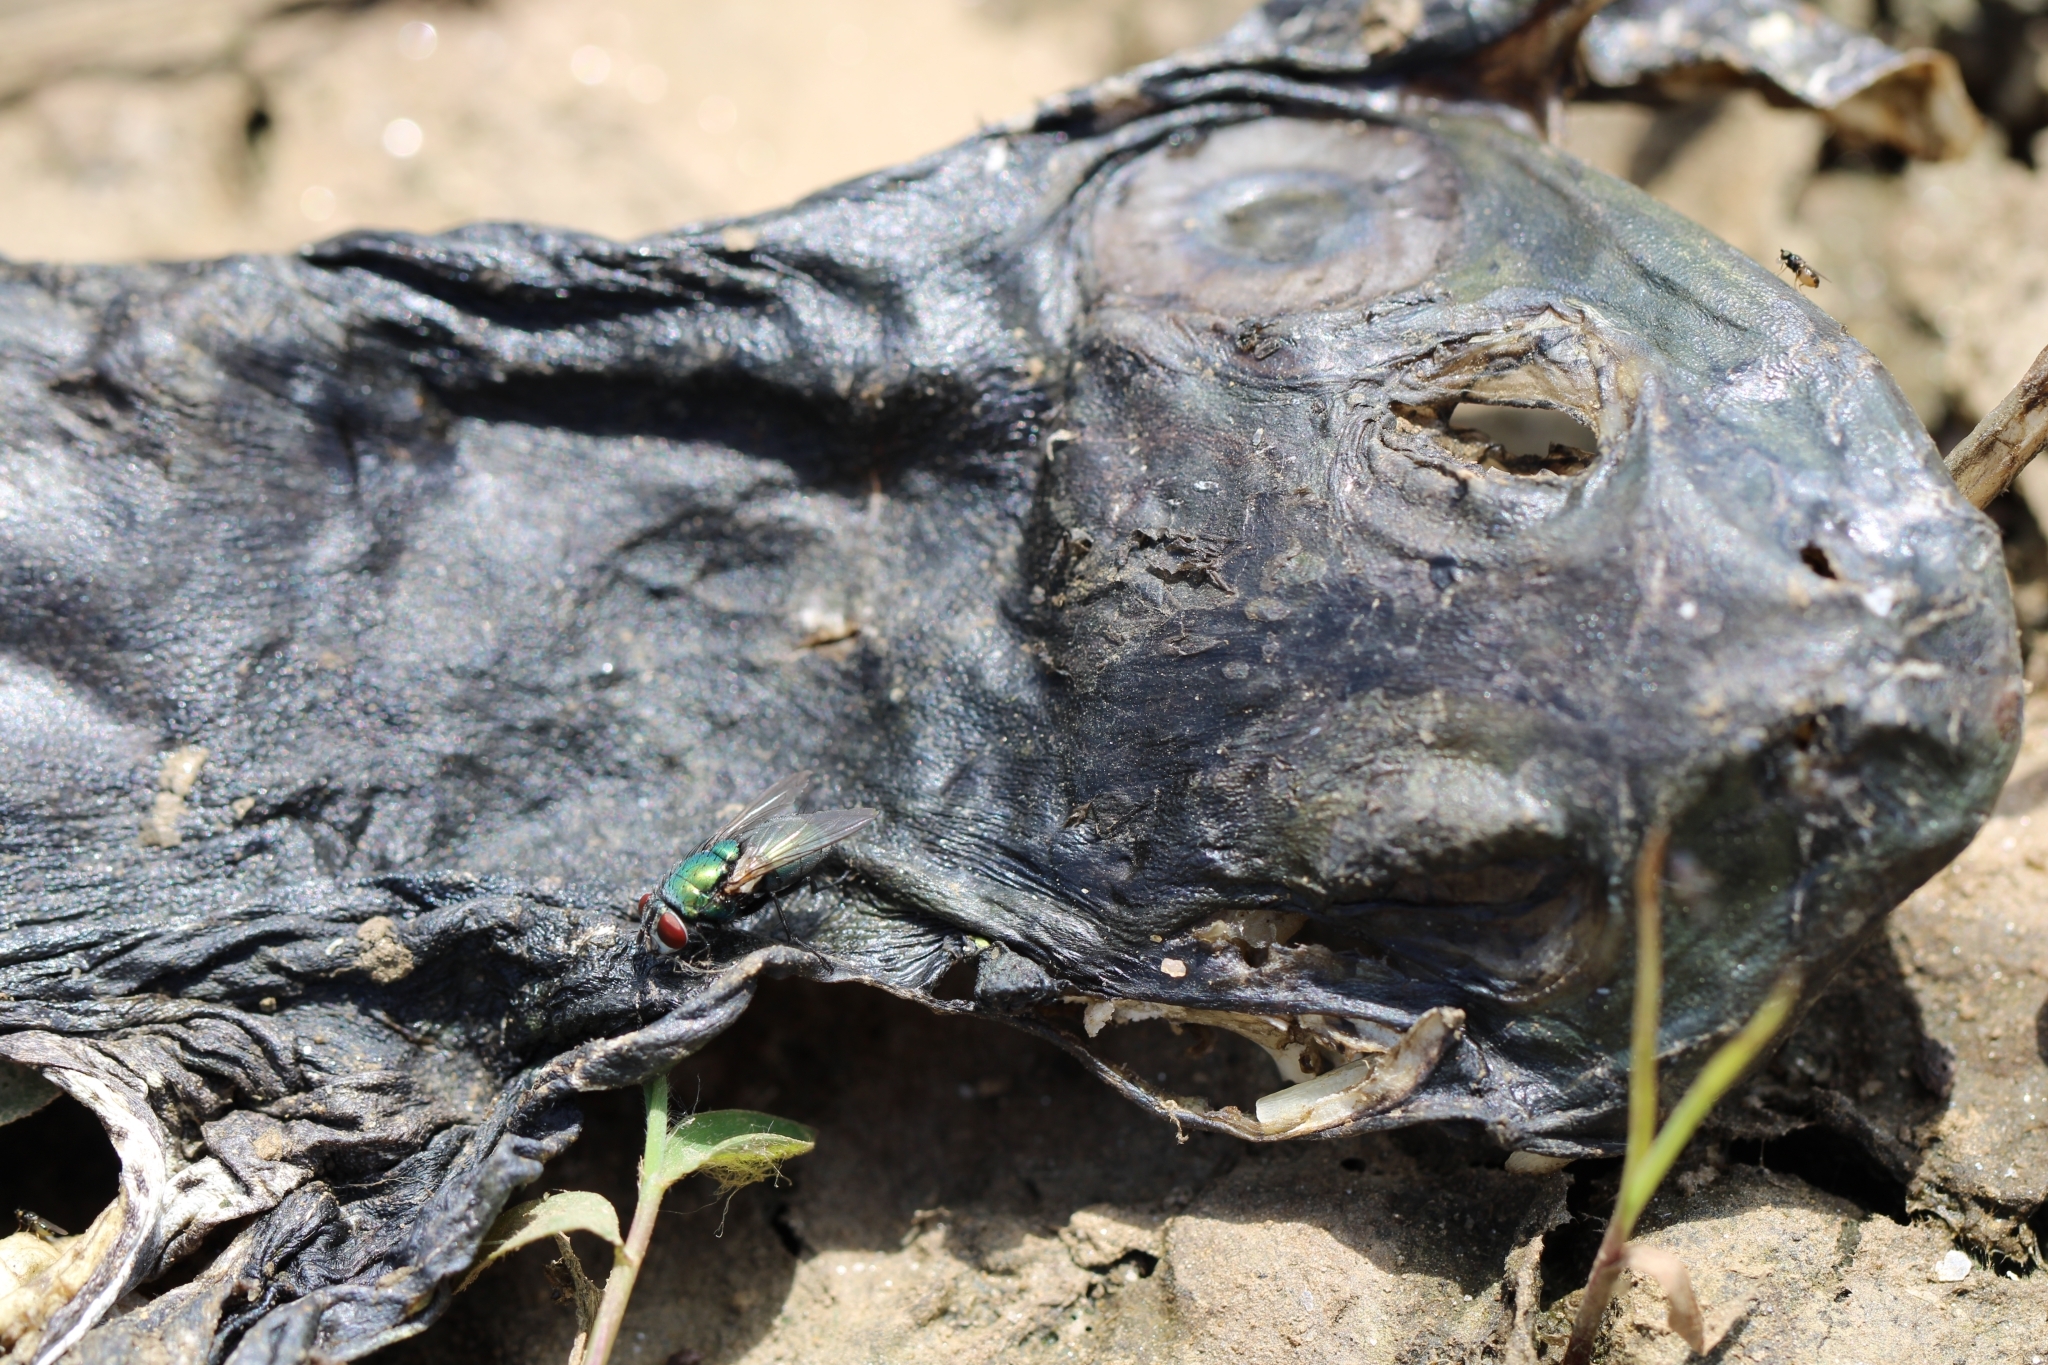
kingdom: Animalia
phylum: Chordata
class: Amphibia
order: Anura
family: Ranidae
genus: Lithobates
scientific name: Lithobates catesbeianus
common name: American bullfrog
